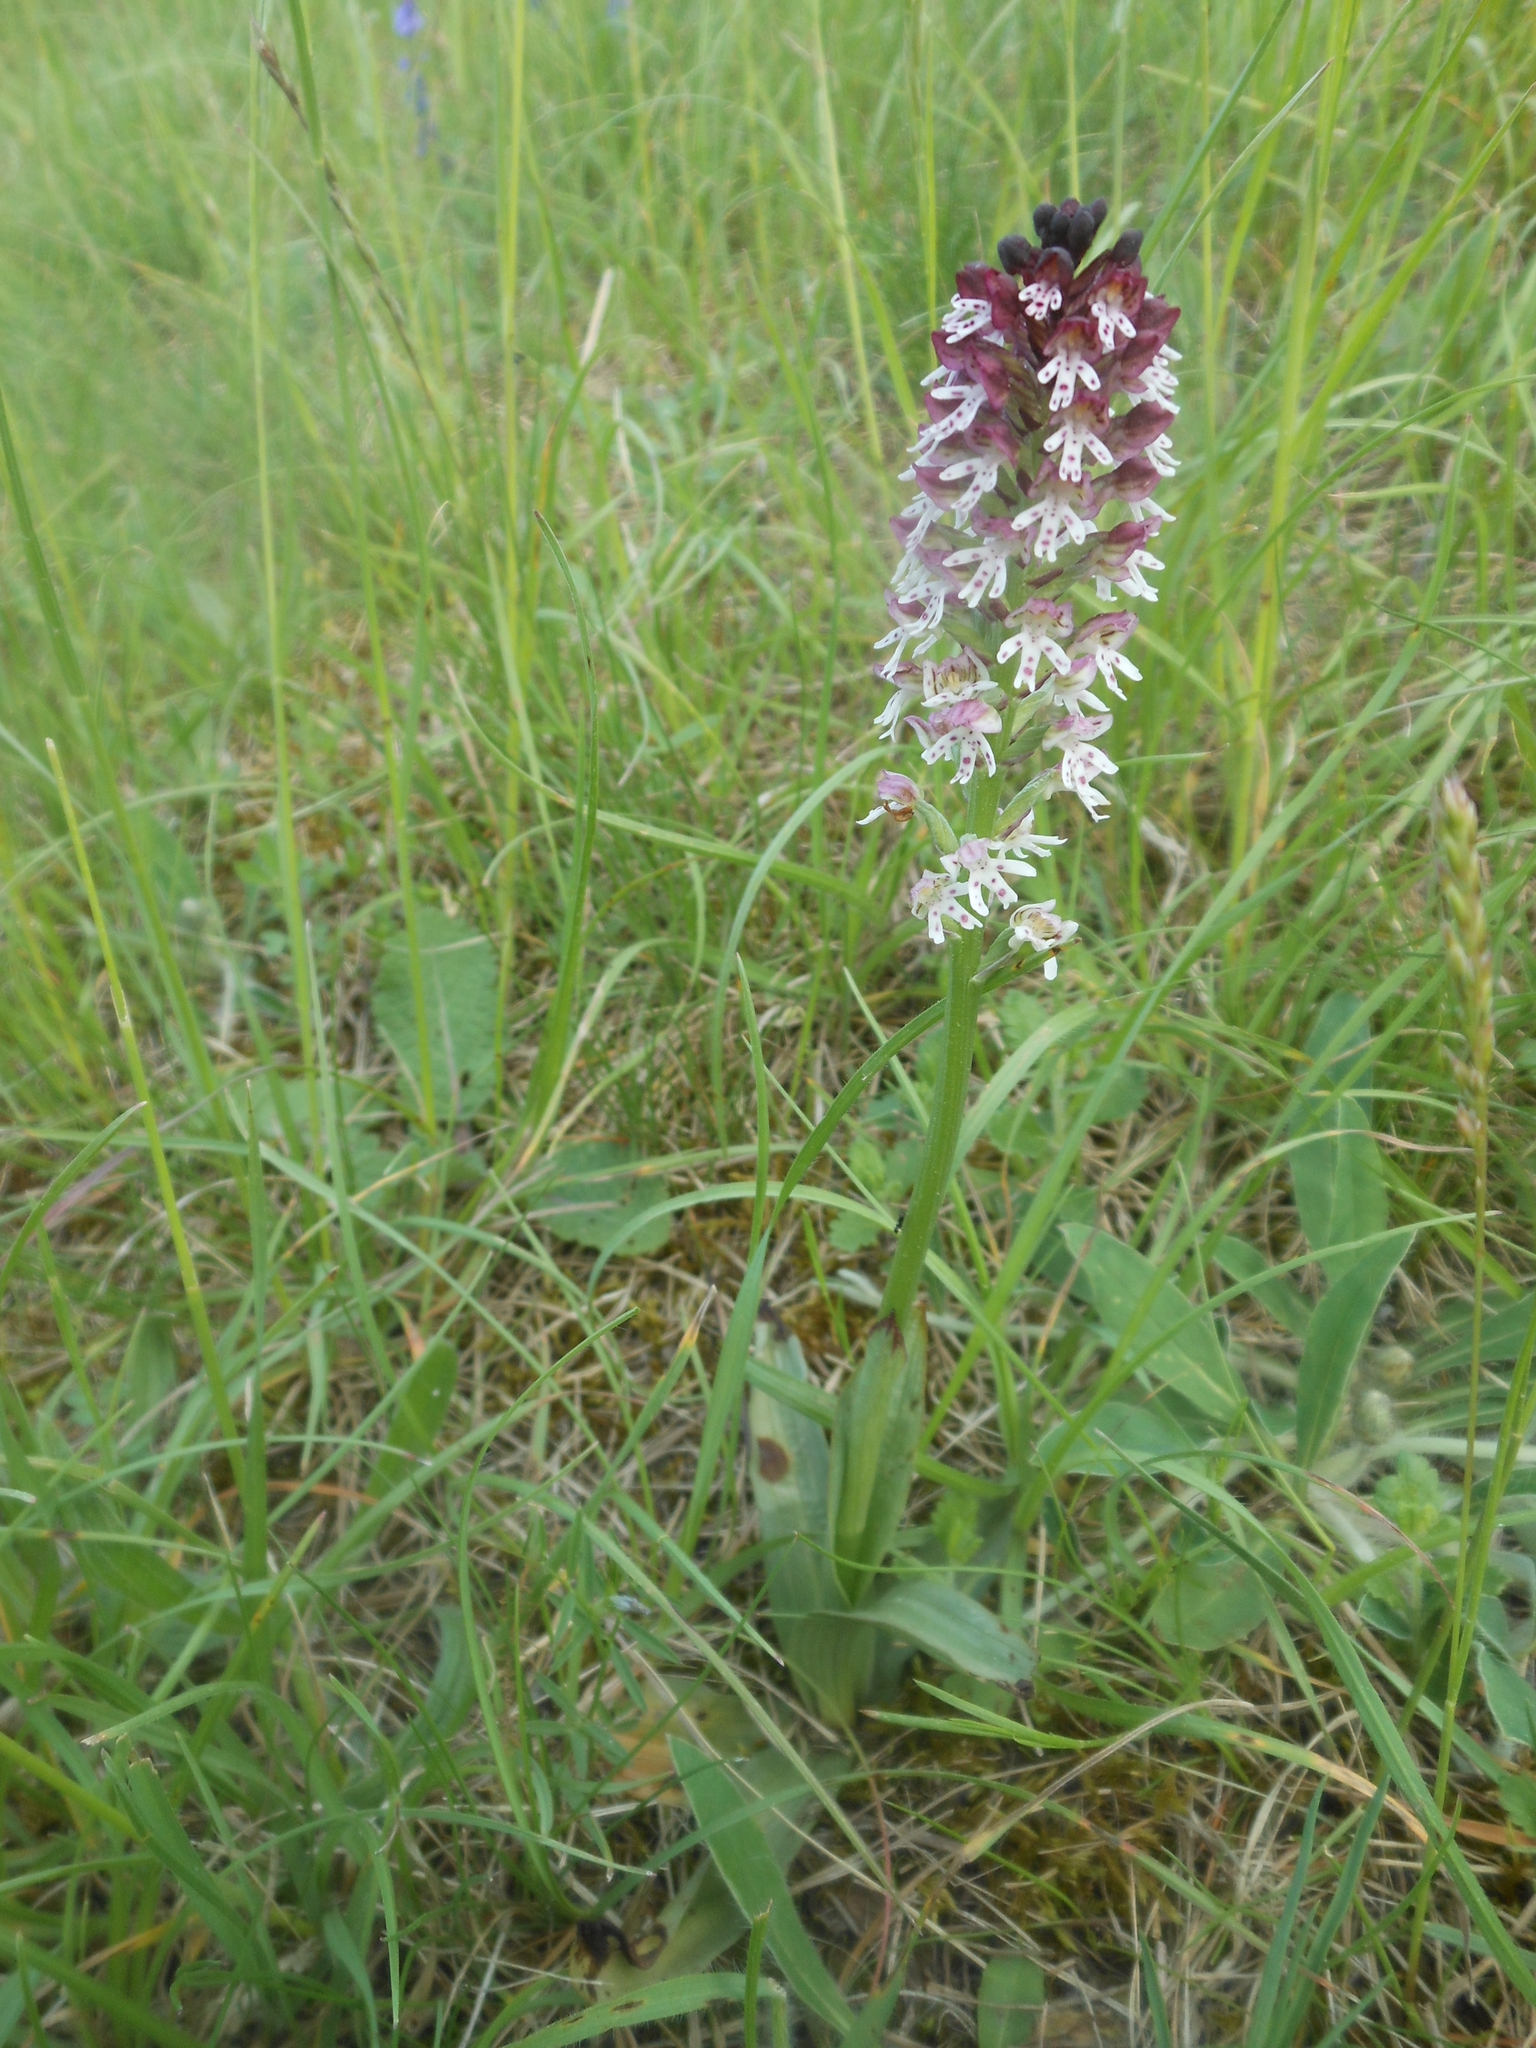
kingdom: Plantae
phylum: Tracheophyta
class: Liliopsida
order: Asparagales
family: Orchidaceae
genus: Neotinea
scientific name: Neotinea ustulata
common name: Burnt orchid
